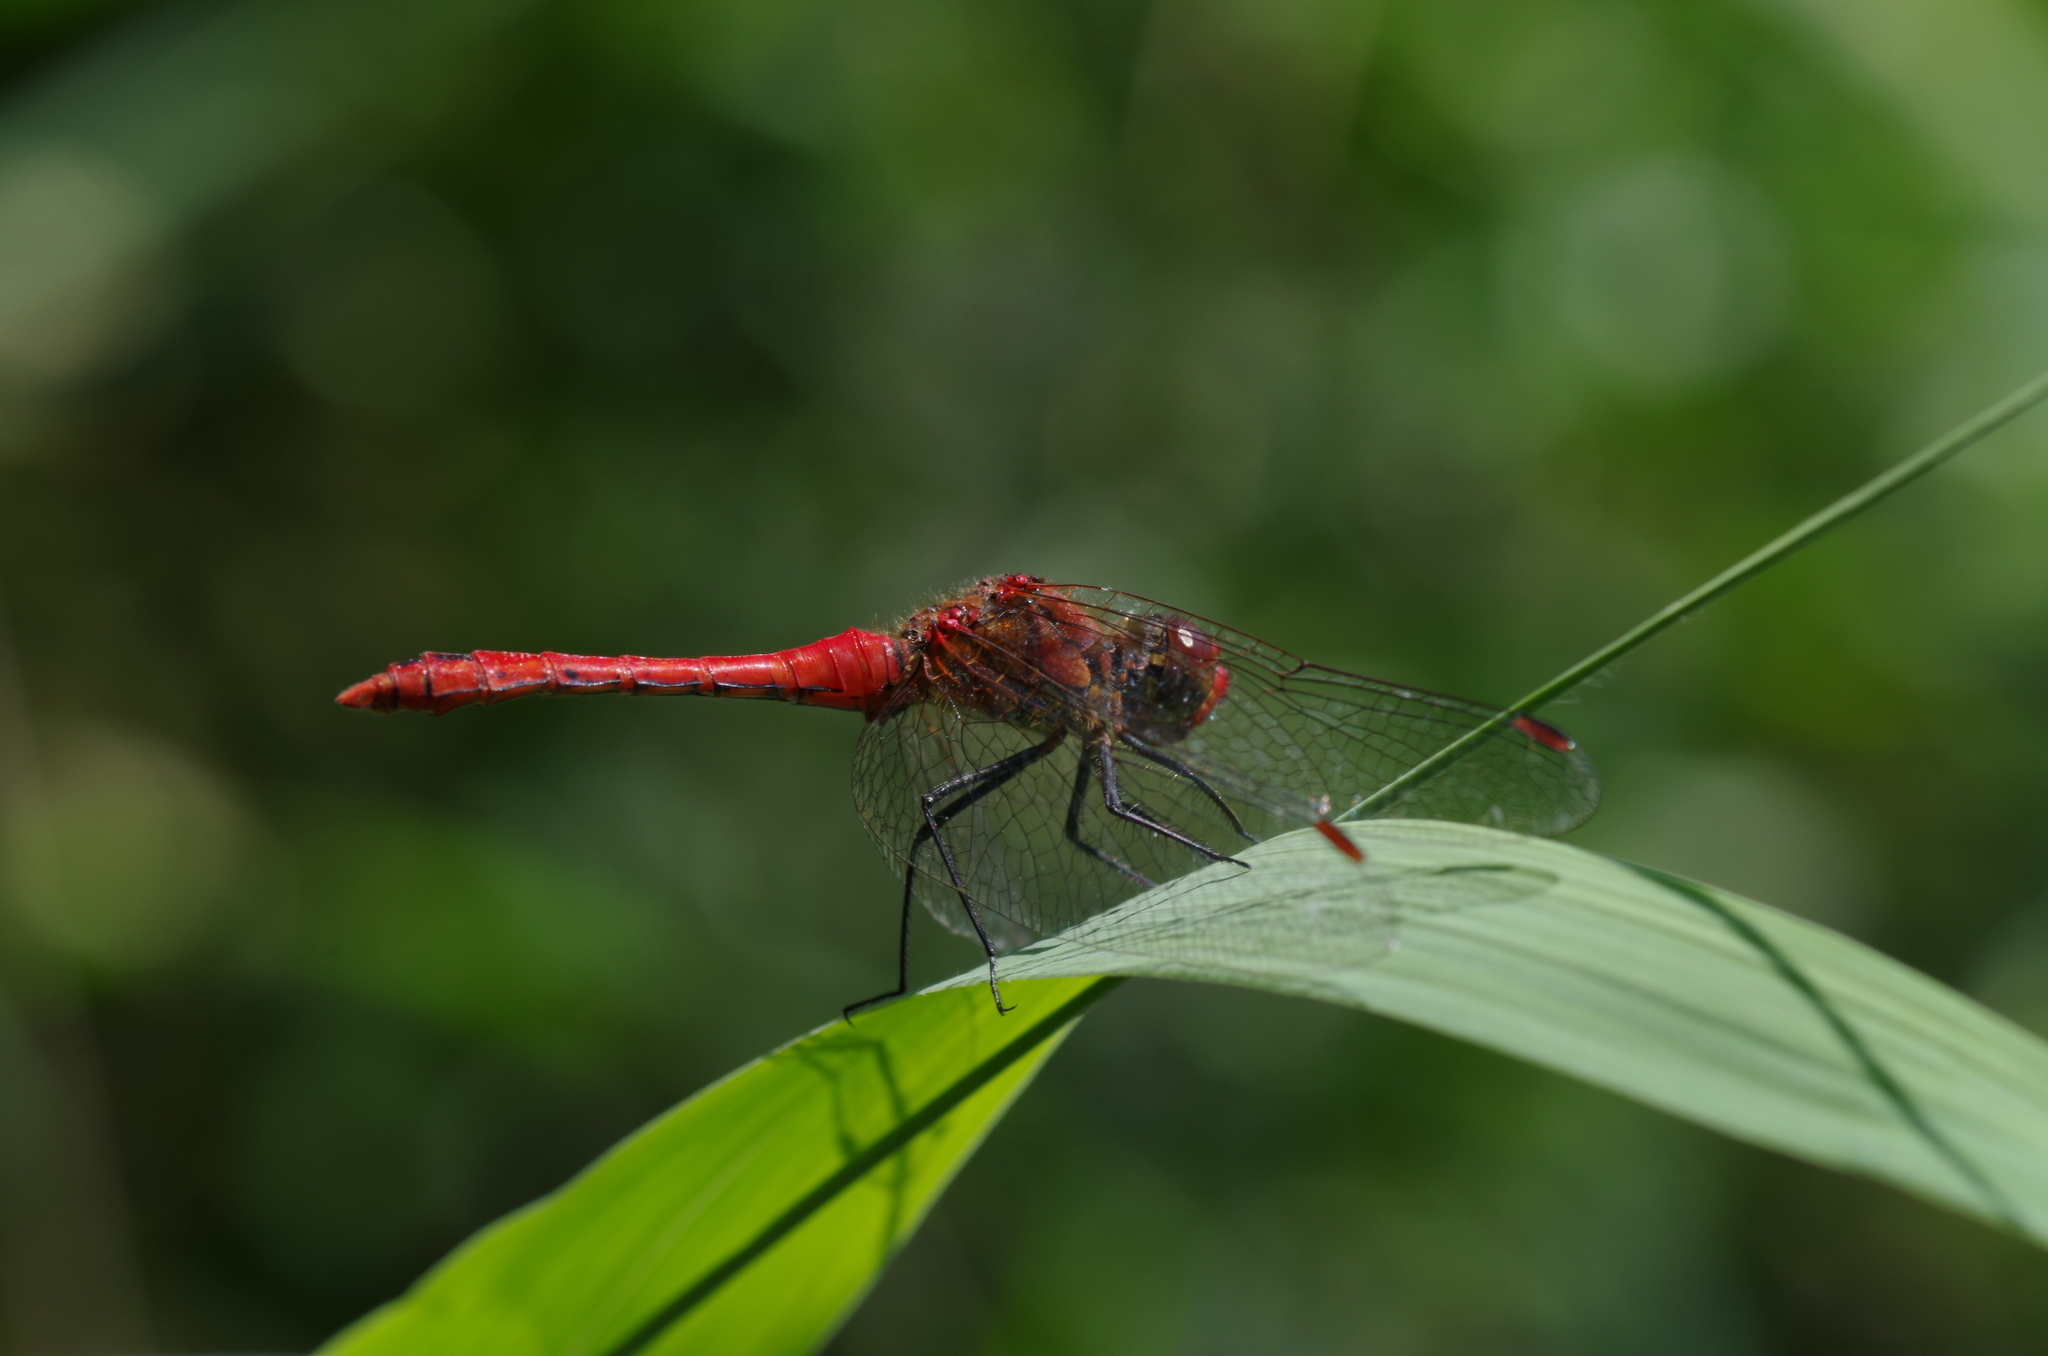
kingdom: Animalia
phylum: Arthropoda
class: Insecta
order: Odonata
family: Libellulidae
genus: Sympetrum
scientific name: Sympetrum sanguineum
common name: Ruddy darter
